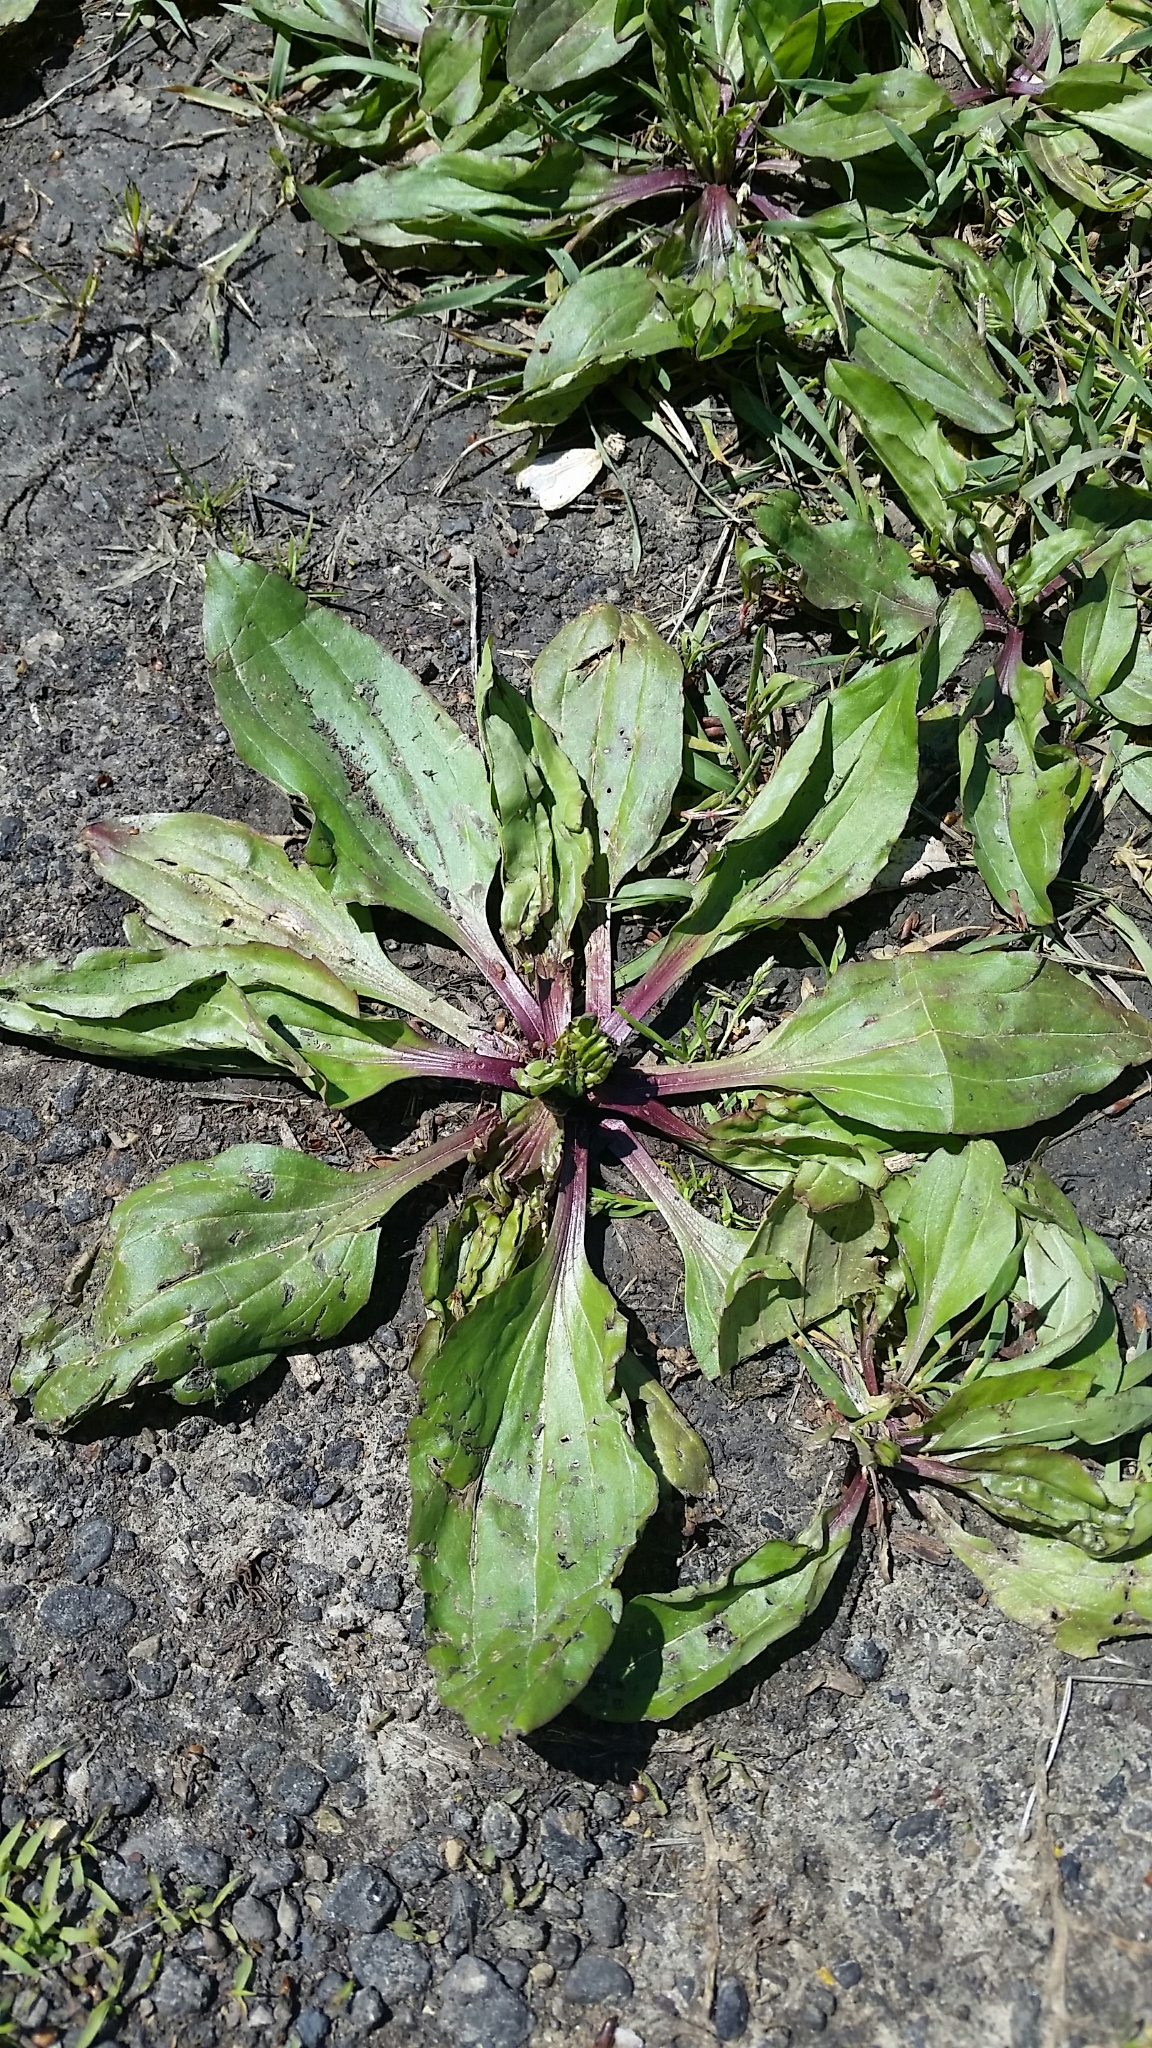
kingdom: Plantae
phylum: Tracheophyta
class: Magnoliopsida
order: Lamiales
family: Plantaginaceae
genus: Plantago
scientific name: Plantago rugelii
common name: American plantain
